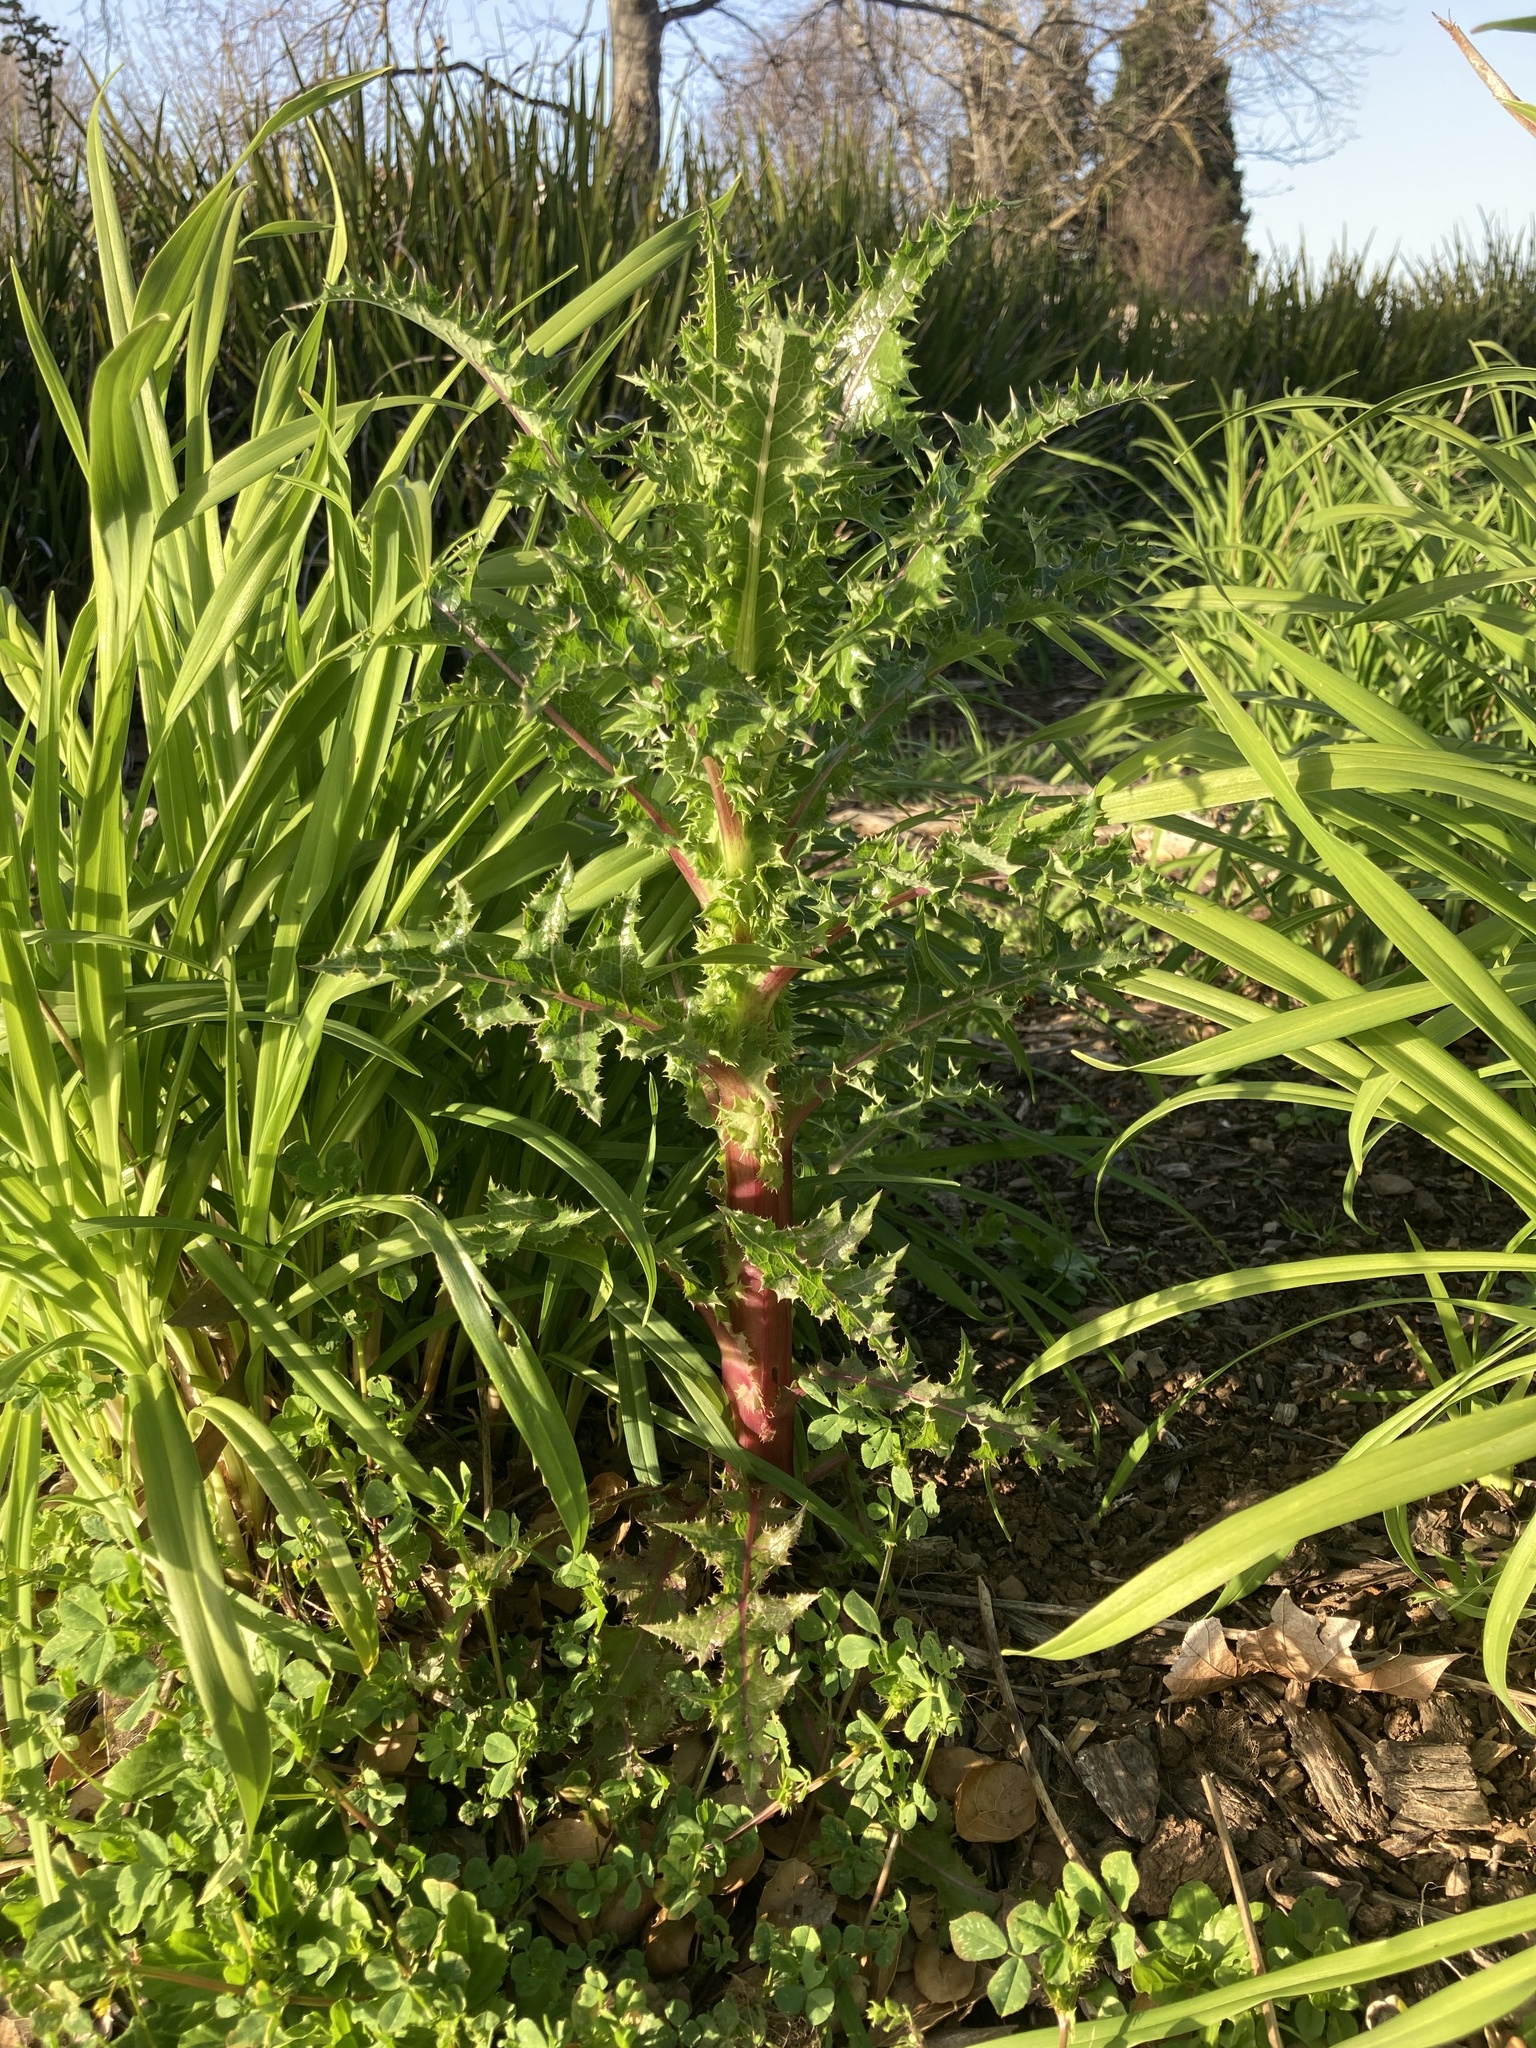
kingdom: Plantae
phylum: Tracheophyta
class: Magnoliopsida
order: Asterales
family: Asteraceae
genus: Sonchus
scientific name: Sonchus asper
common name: Prickly sow-thistle
